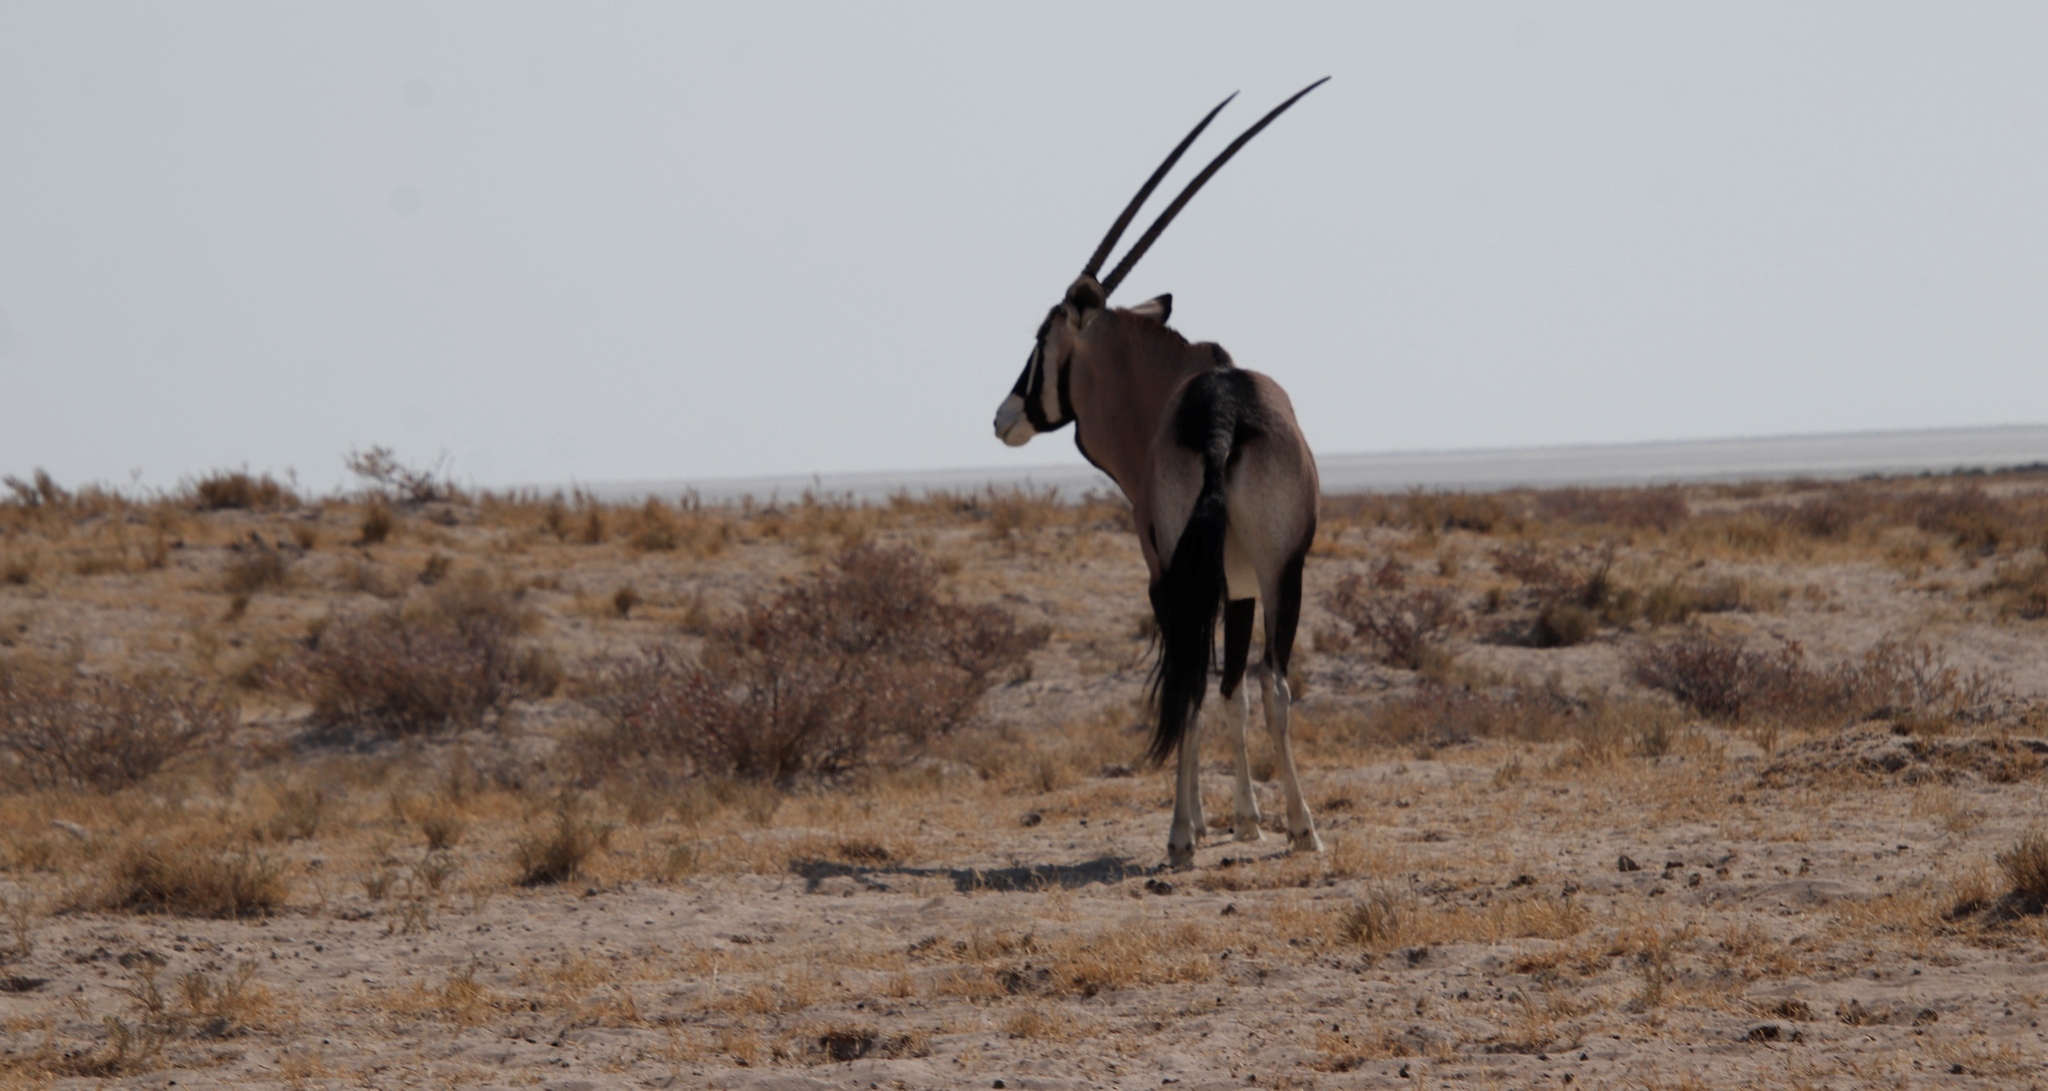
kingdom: Animalia
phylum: Chordata
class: Mammalia
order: Artiodactyla
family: Bovidae
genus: Oryx
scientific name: Oryx gazella
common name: Gemsbok
